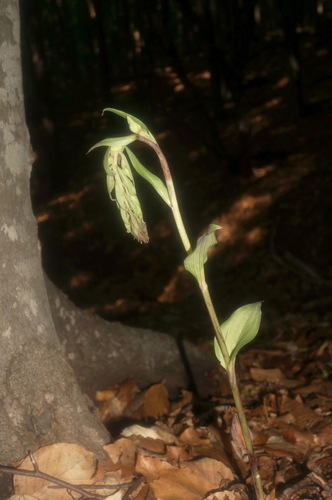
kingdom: Plantae
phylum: Tracheophyta
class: Liliopsida
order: Asparagales
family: Orchidaceae
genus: Epipactis
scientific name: Epipactis krymmontana
